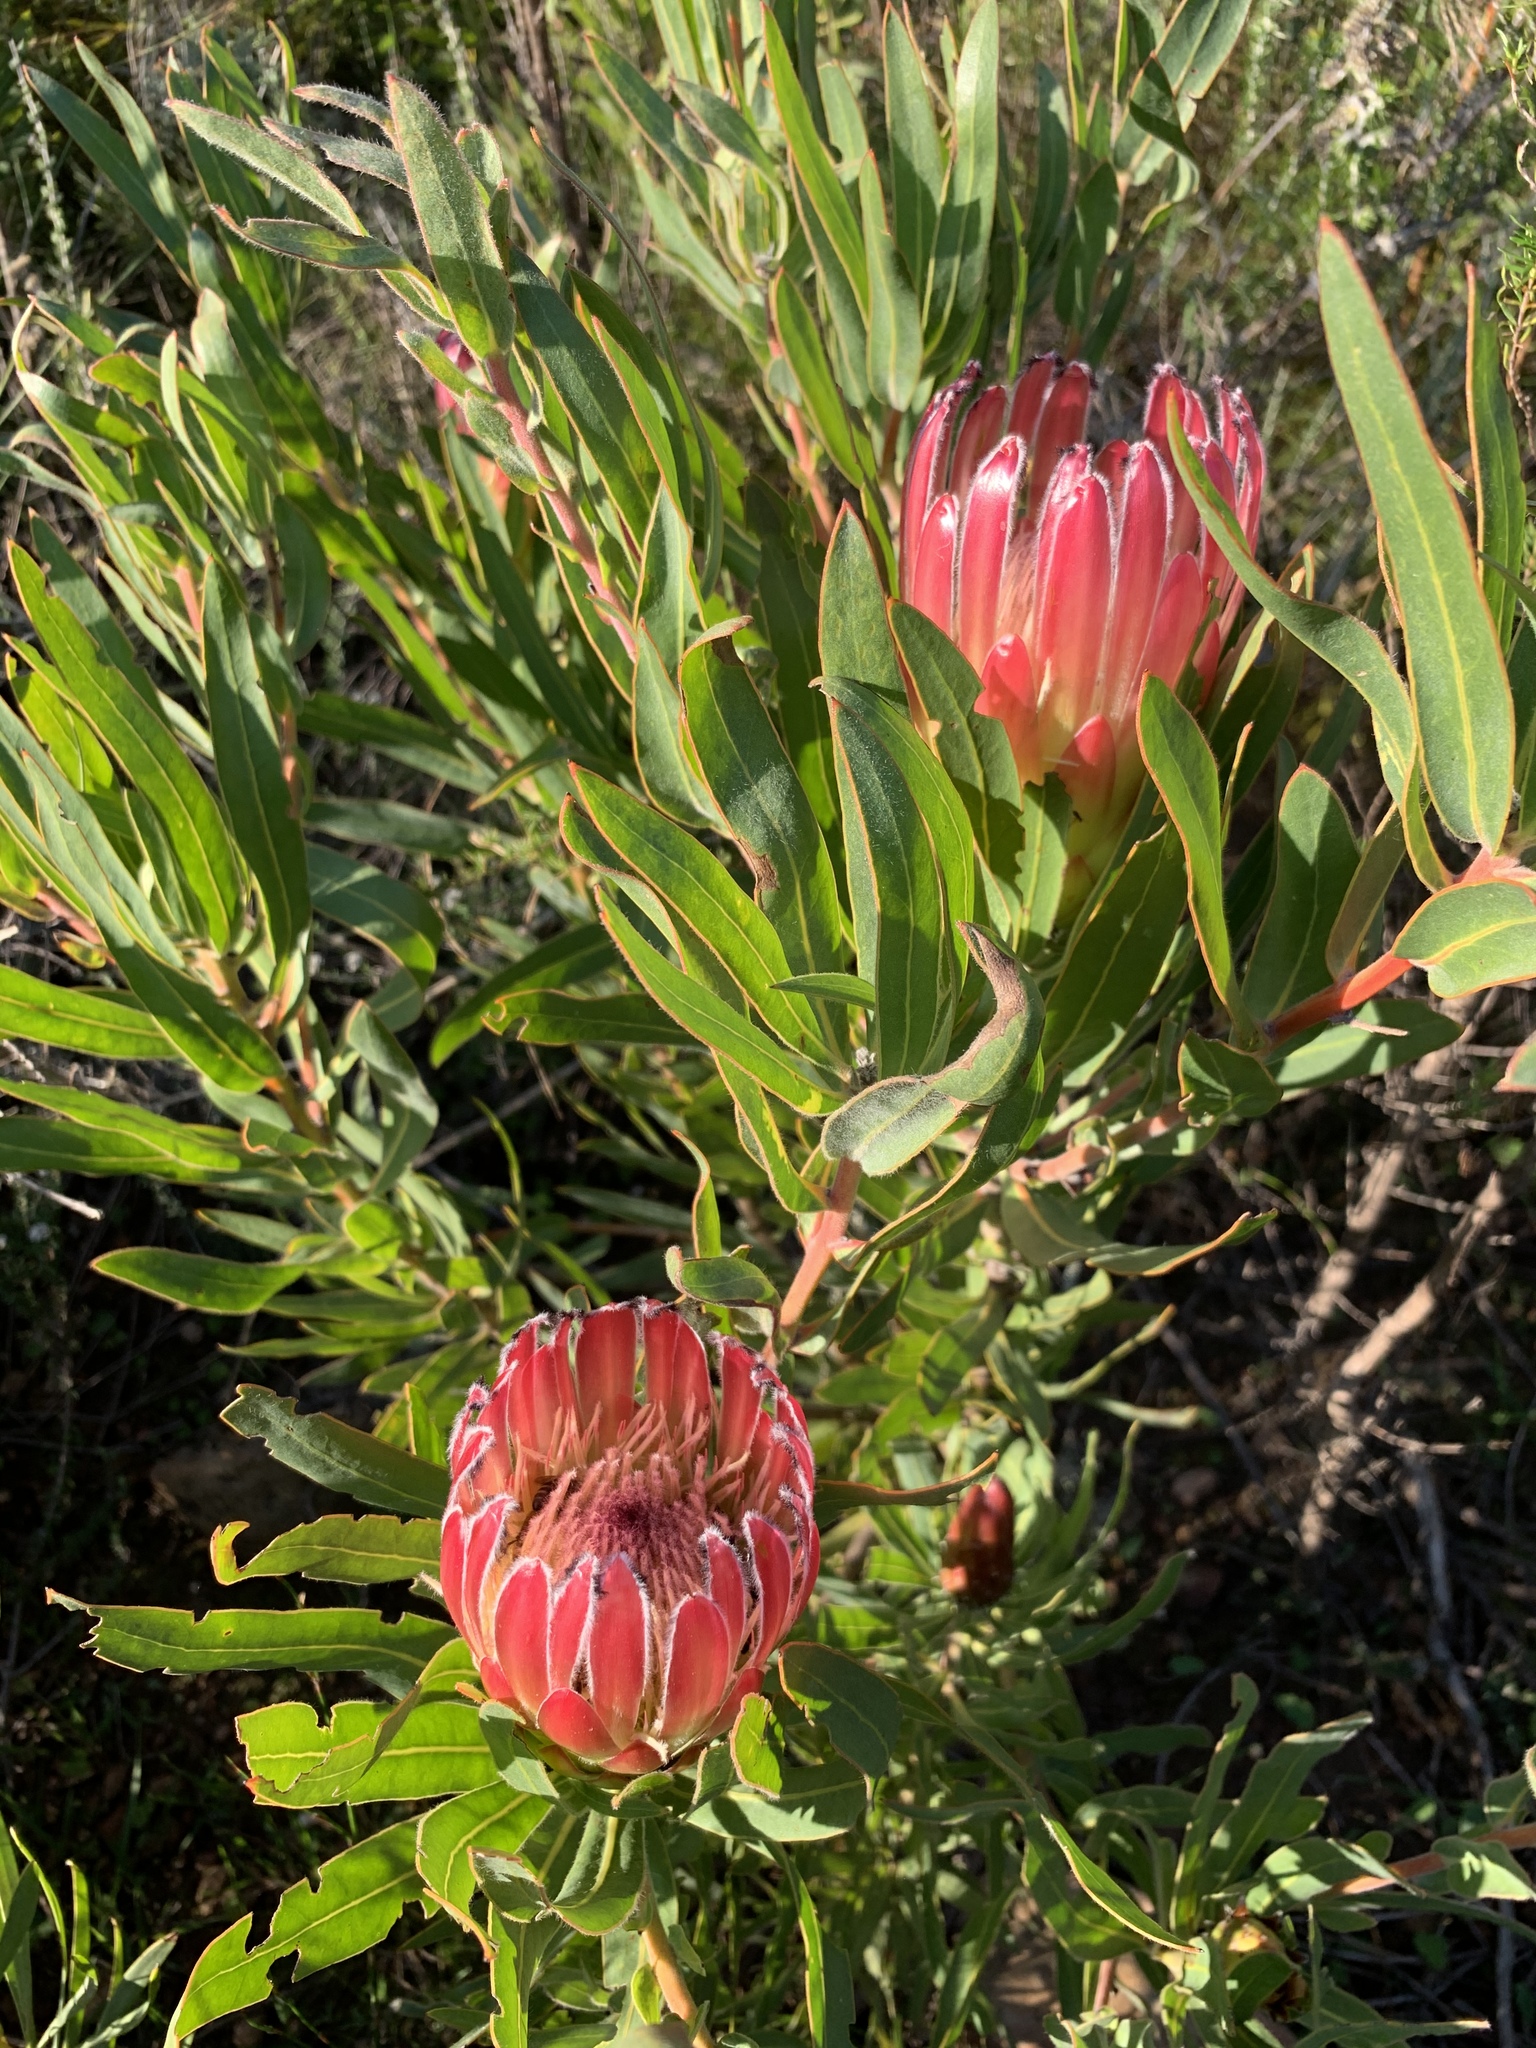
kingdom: Plantae
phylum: Tracheophyta
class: Magnoliopsida
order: Proteales
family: Proteaceae
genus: Protea
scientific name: Protea burchellii
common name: Burchell's sugarbush
